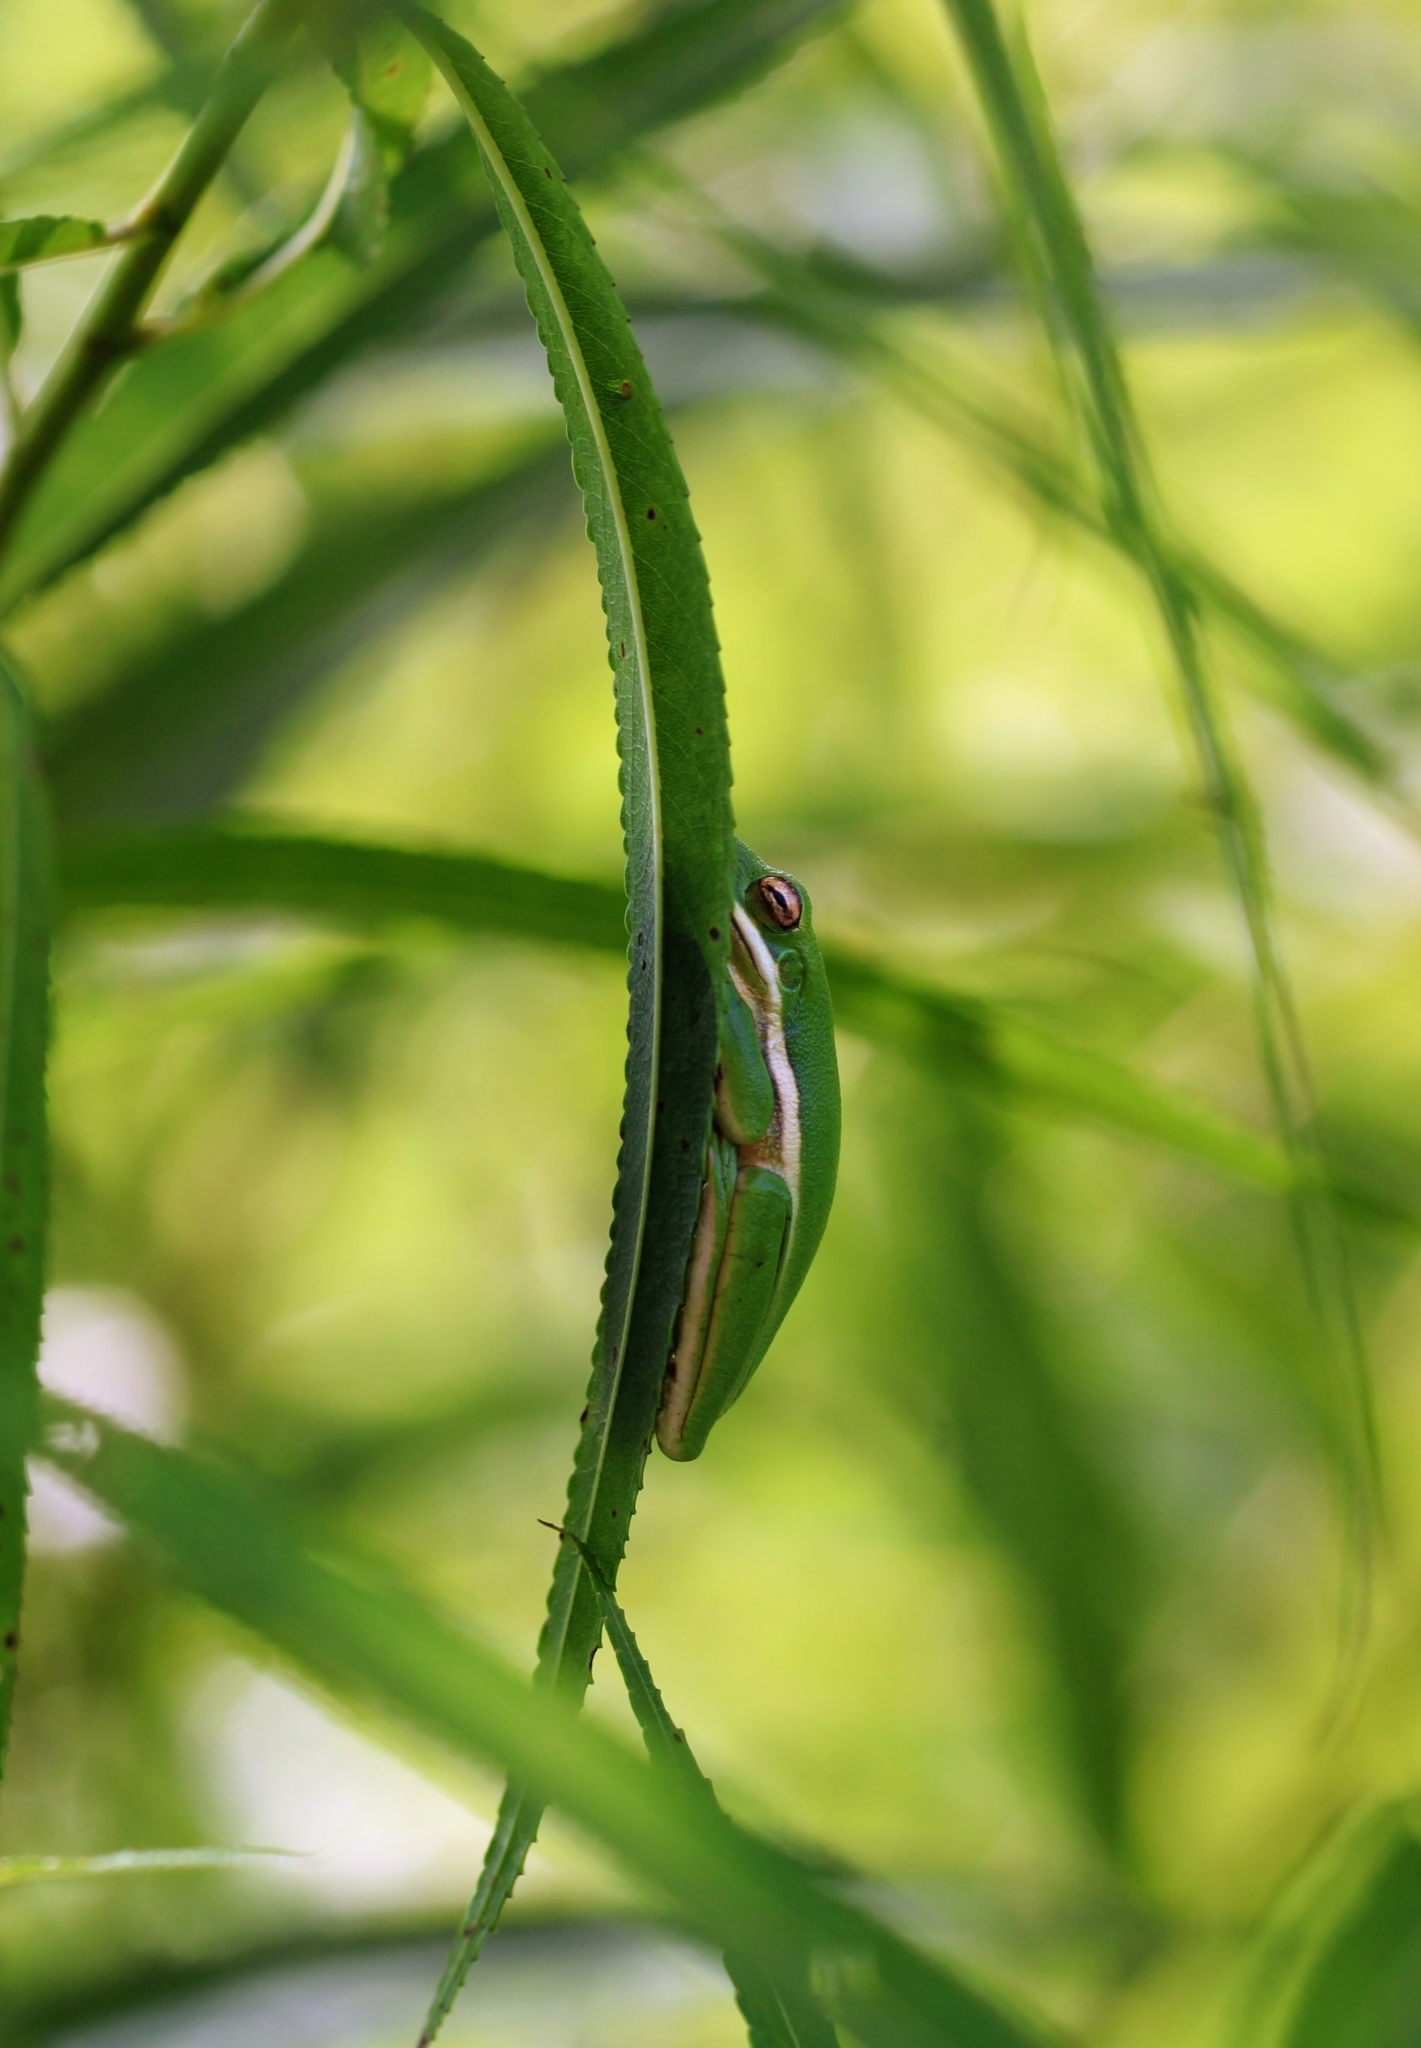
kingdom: Animalia
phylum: Chordata
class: Amphibia
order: Anura
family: Hylidae
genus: Dryophytes
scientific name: Dryophytes cinereus
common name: Green treefrog
